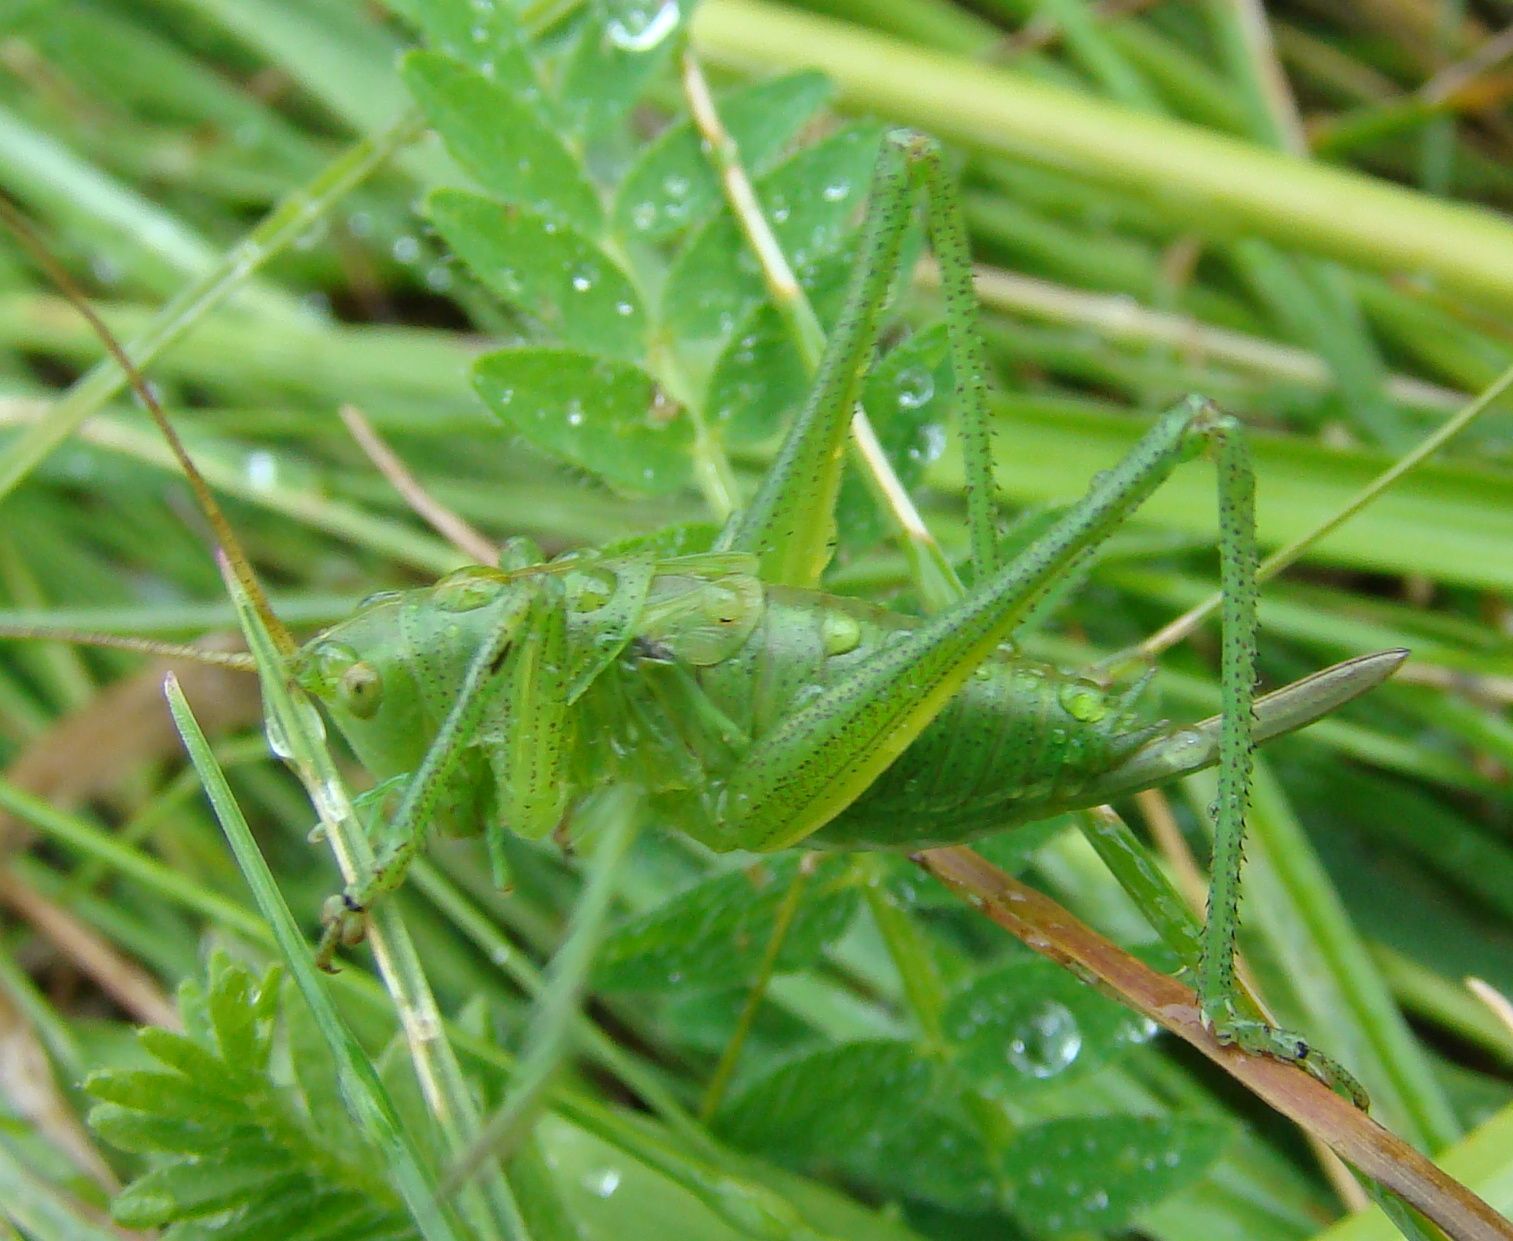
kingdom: Animalia
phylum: Arthropoda
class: Insecta
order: Orthoptera
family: Tettigoniidae
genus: Tettigonia
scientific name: Tettigonia cantans
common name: Upland green bush-cricket
